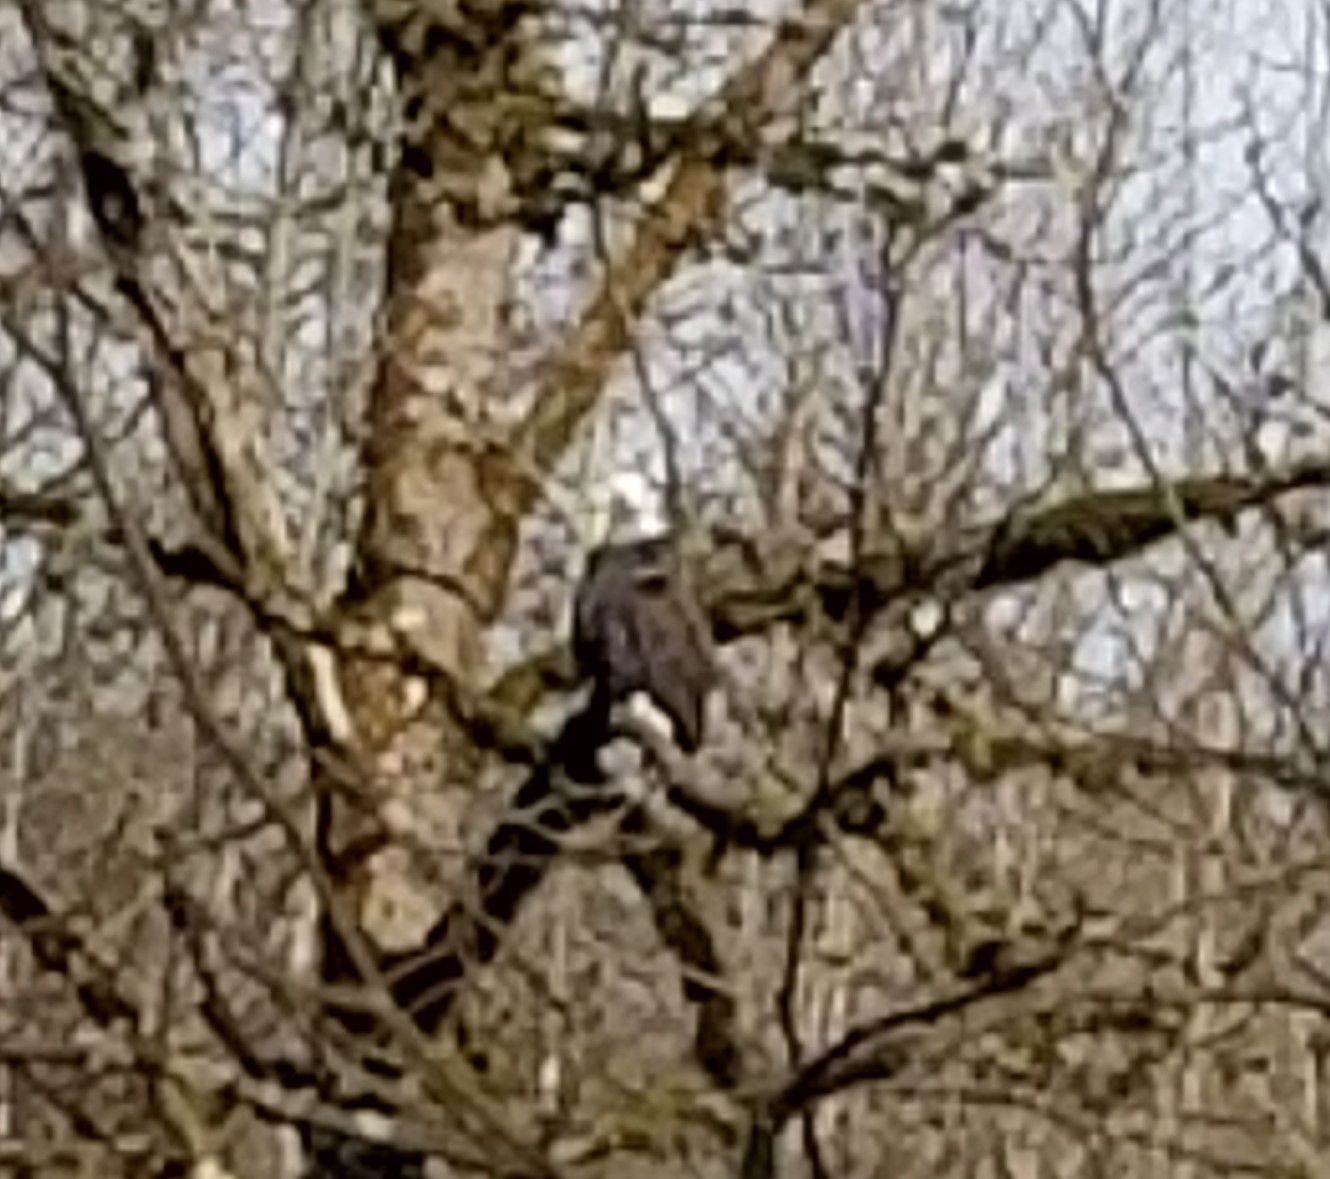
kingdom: Animalia
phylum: Chordata
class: Aves
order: Accipitriformes
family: Accipitridae
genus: Haliaeetus
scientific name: Haliaeetus leucocephalus
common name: Bald eagle
